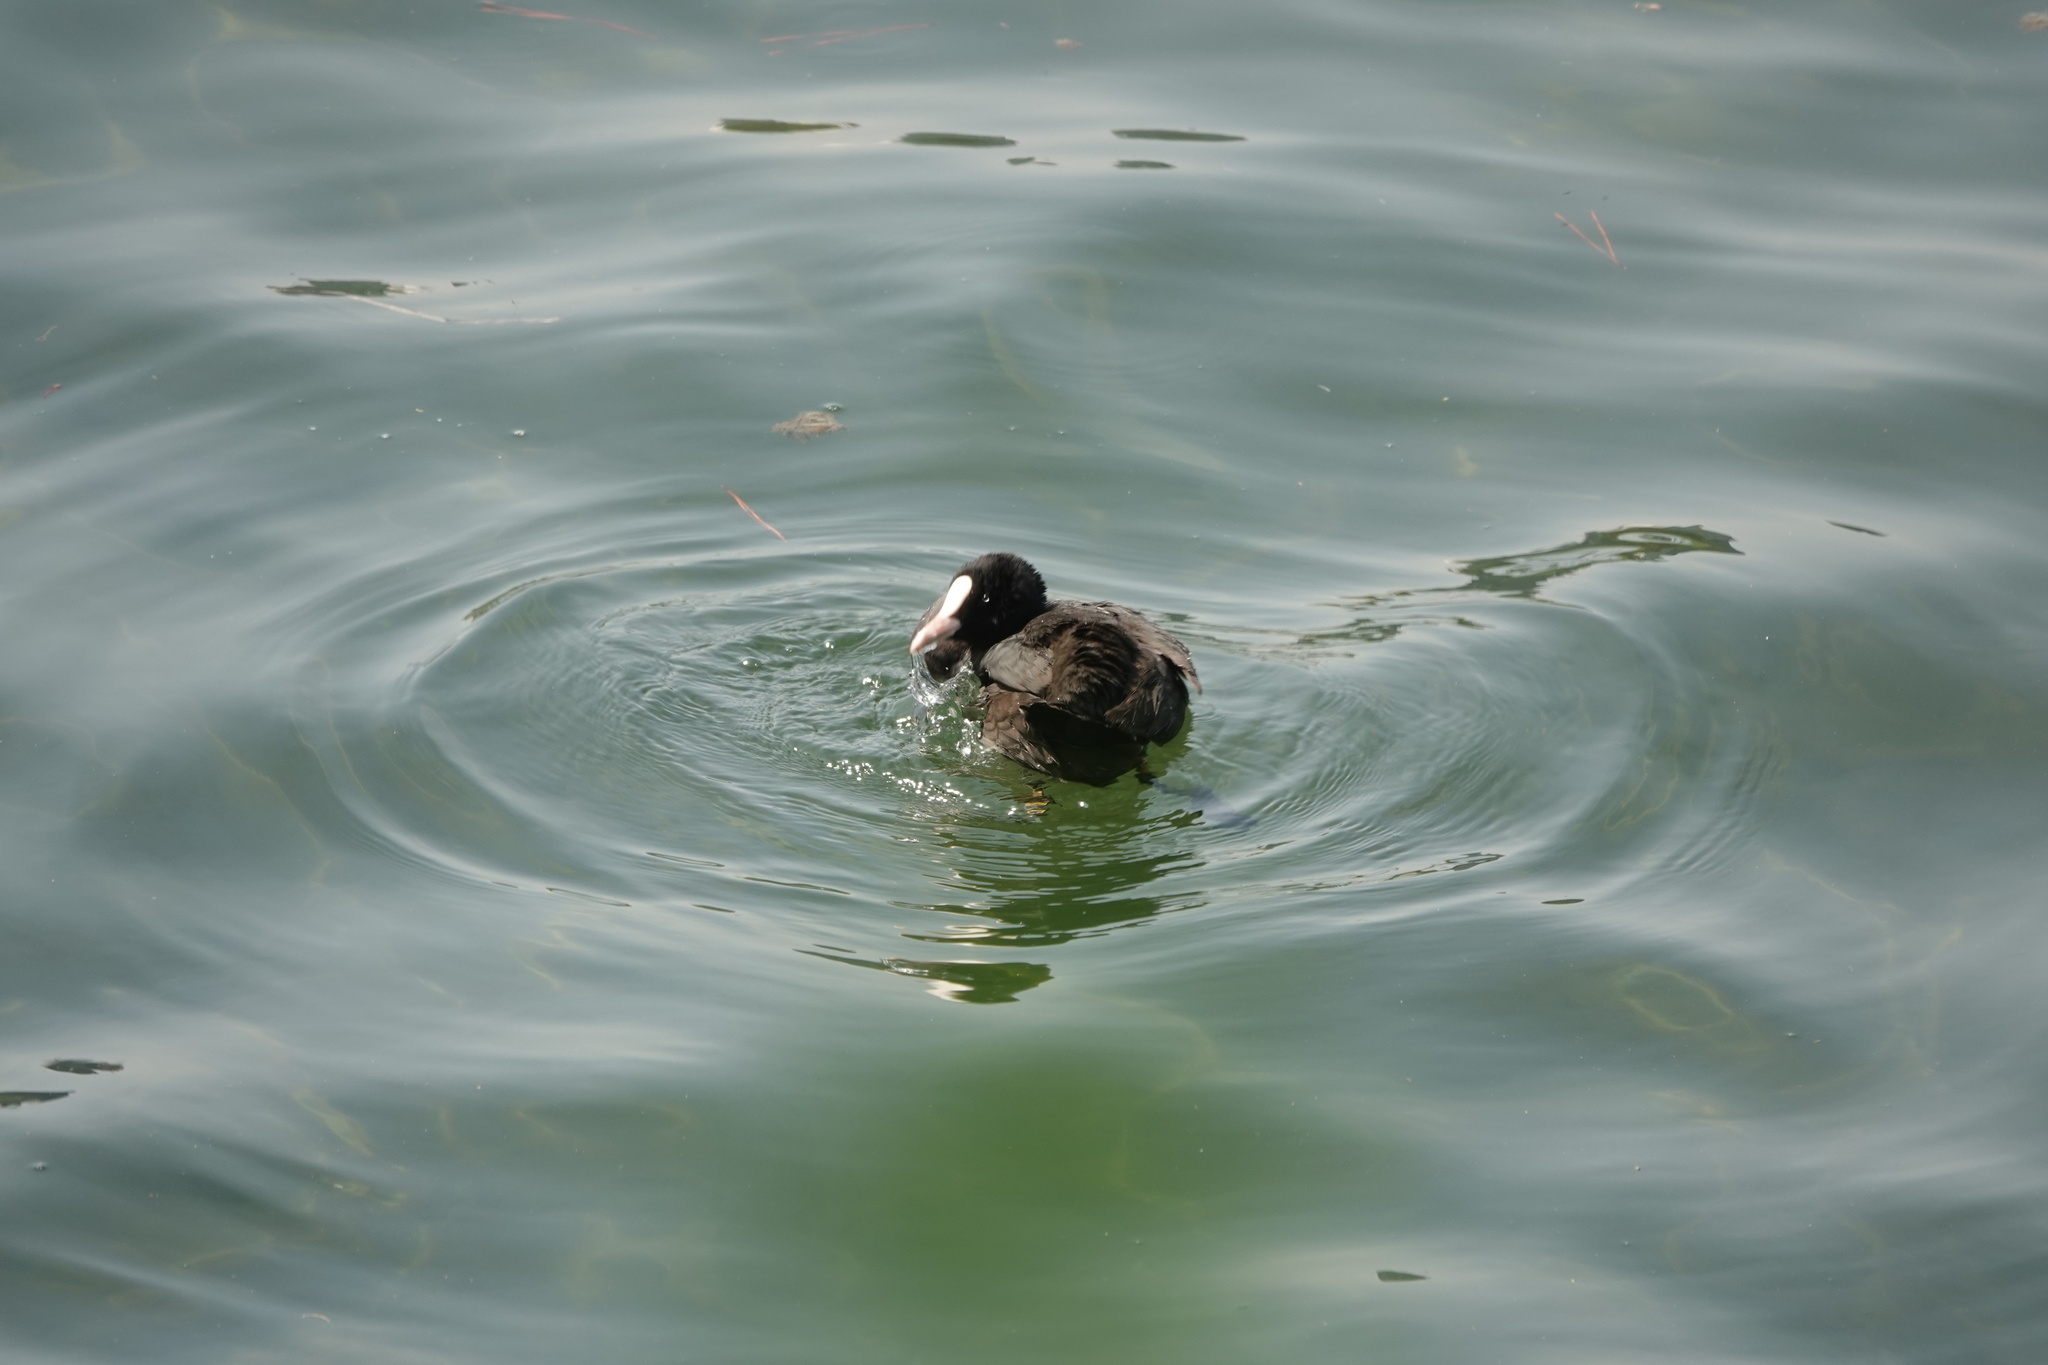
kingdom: Animalia
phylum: Chordata
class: Aves
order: Gruiformes
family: Rallidae
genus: Fulica
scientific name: Fulica atra
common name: Eurasian coot
